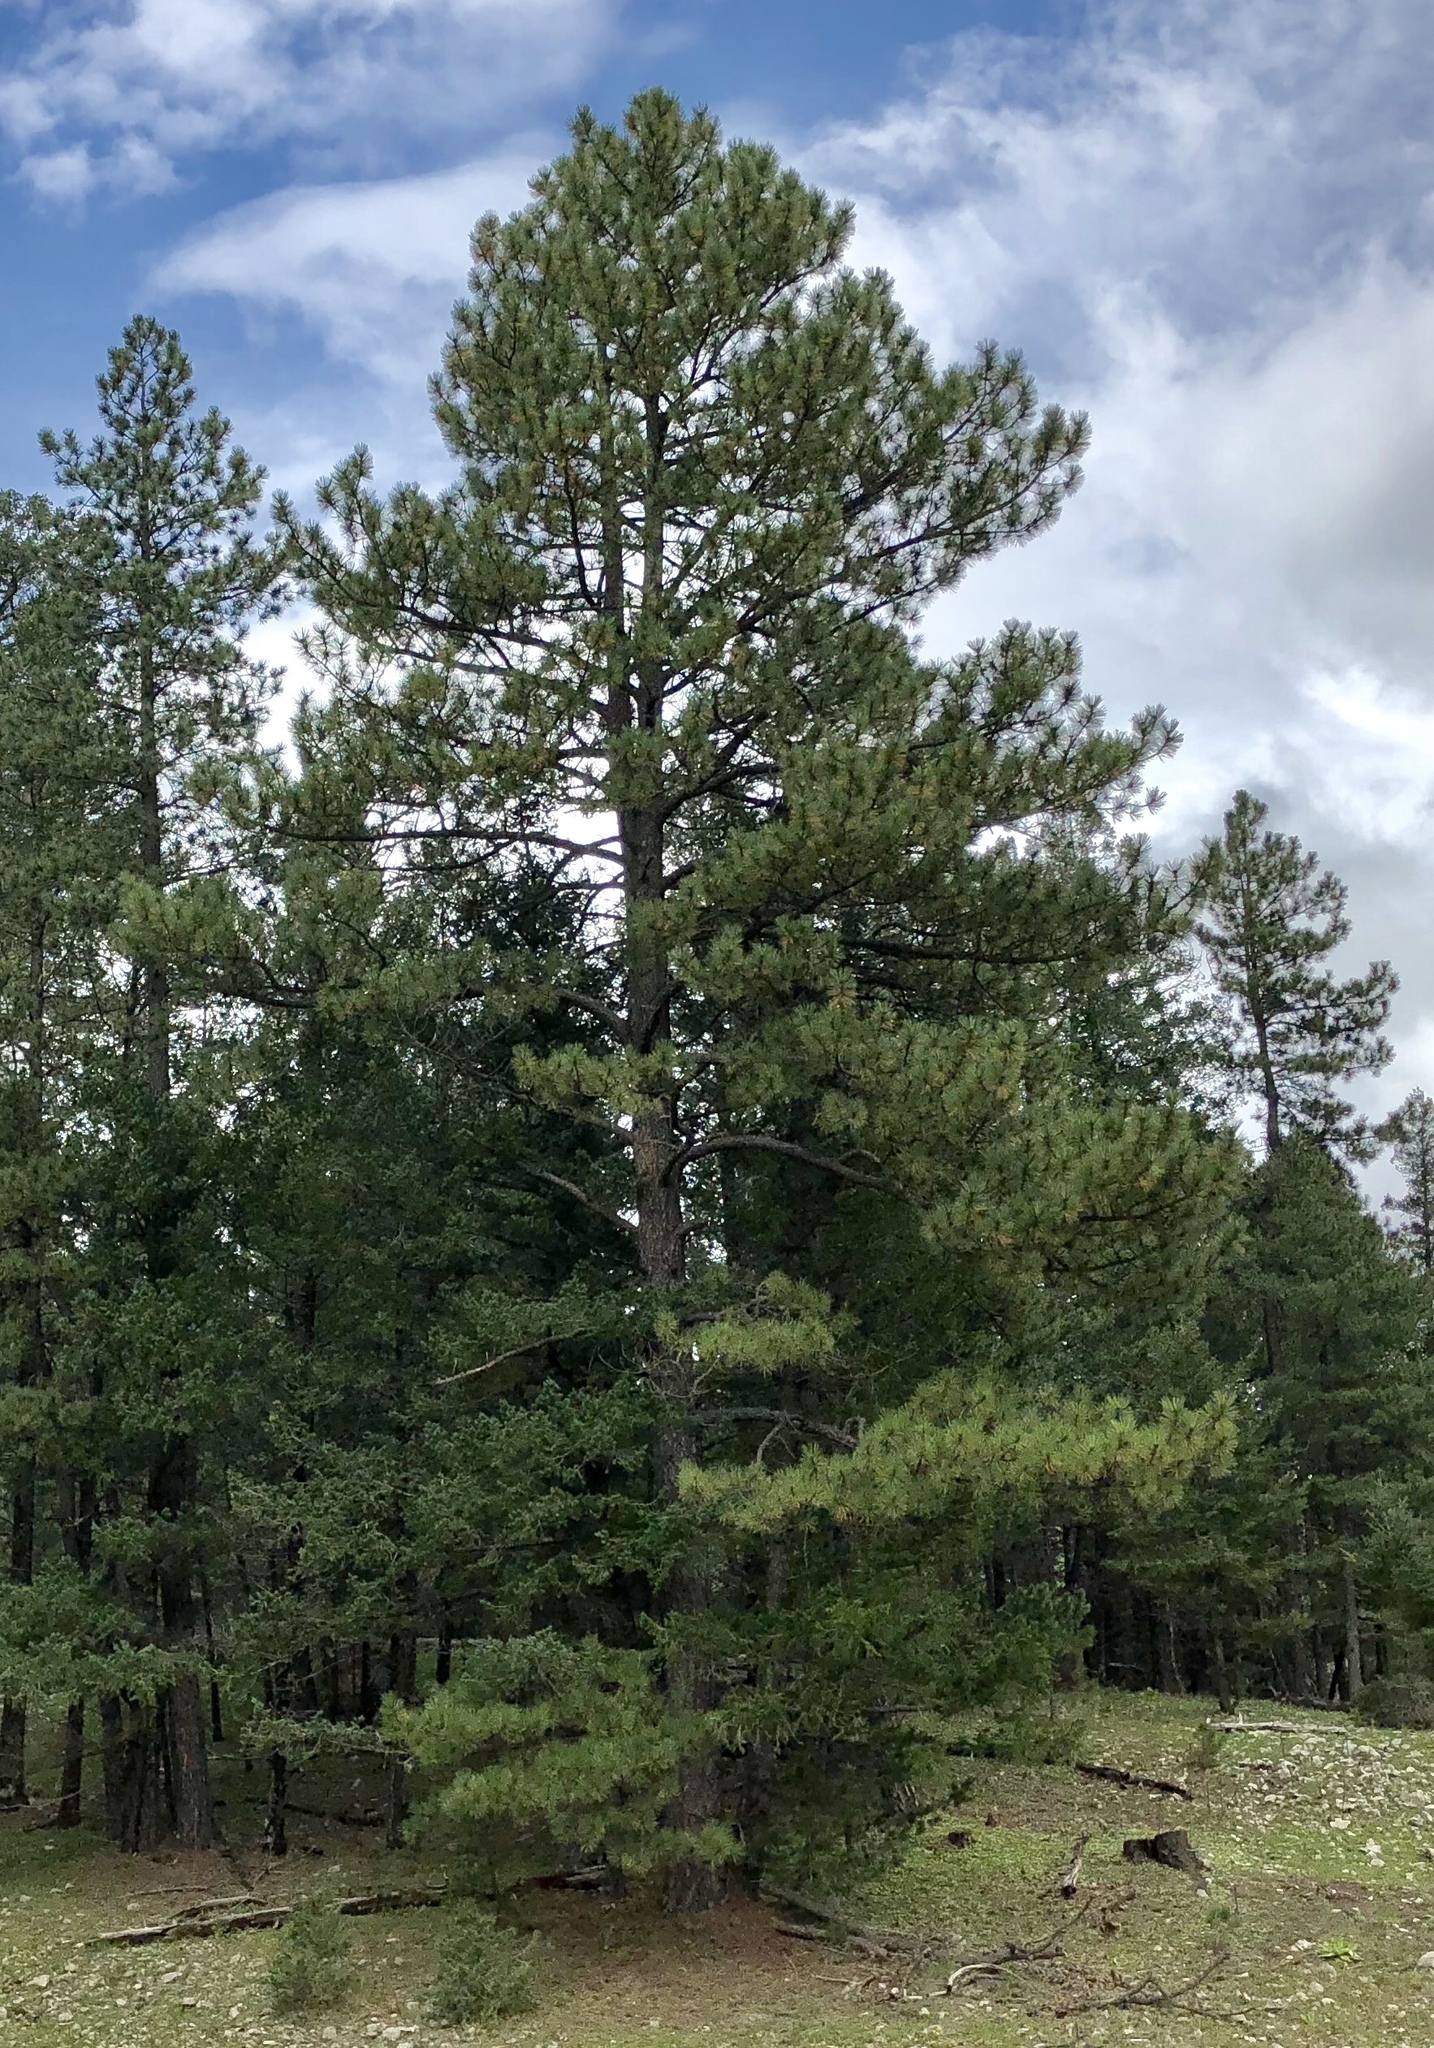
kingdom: Plantae
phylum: Tracheophyta
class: Pinopsida
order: Pinales
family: Pinaceae
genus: Pinus
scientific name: Pinus ponderosa
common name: Western yellow-pine
